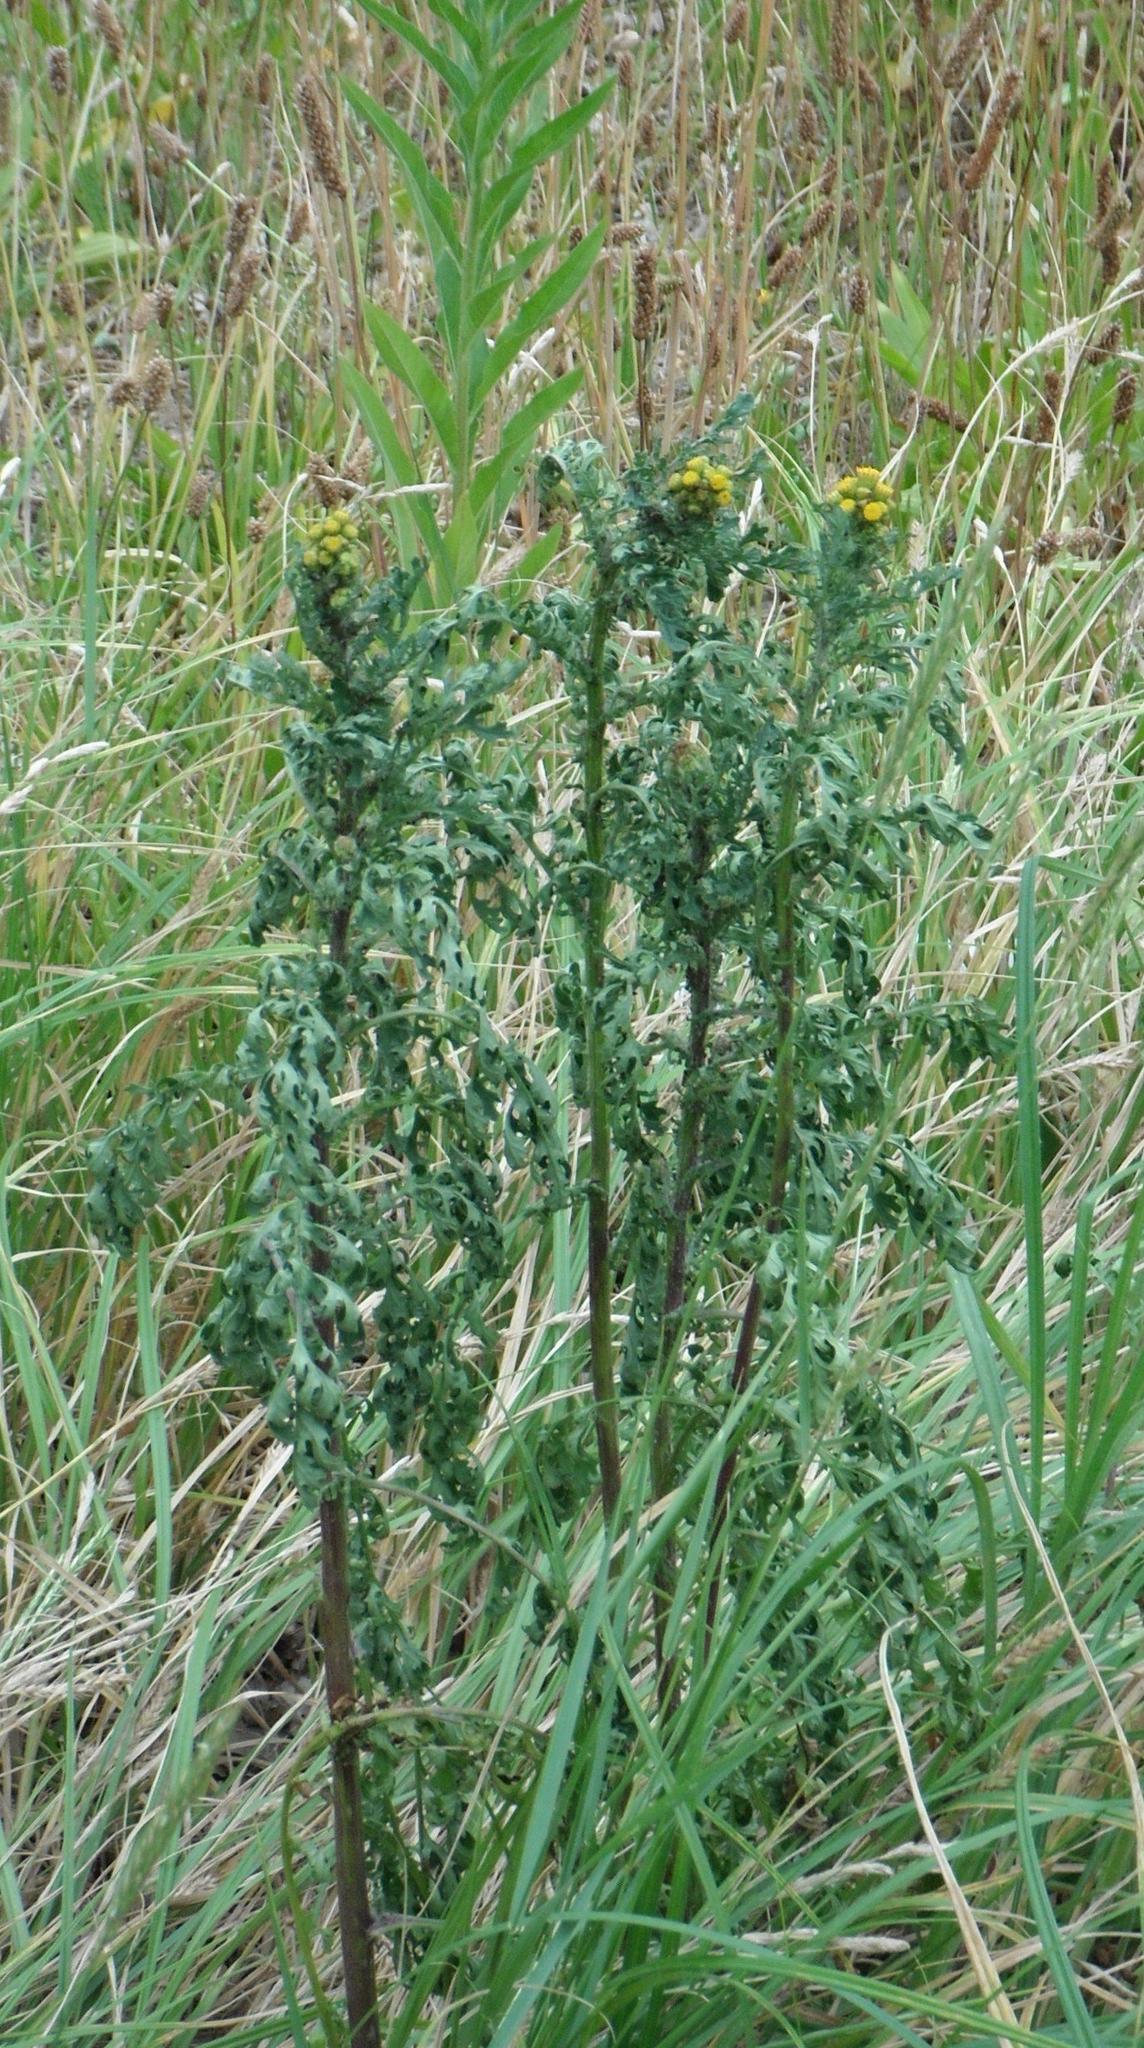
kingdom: Plantae
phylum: Tracheophyta
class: Magnoliopsida
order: Asterales
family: Asteraceae
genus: Jacobaea
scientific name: Jacobaea vulgaris
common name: Stinking willie
